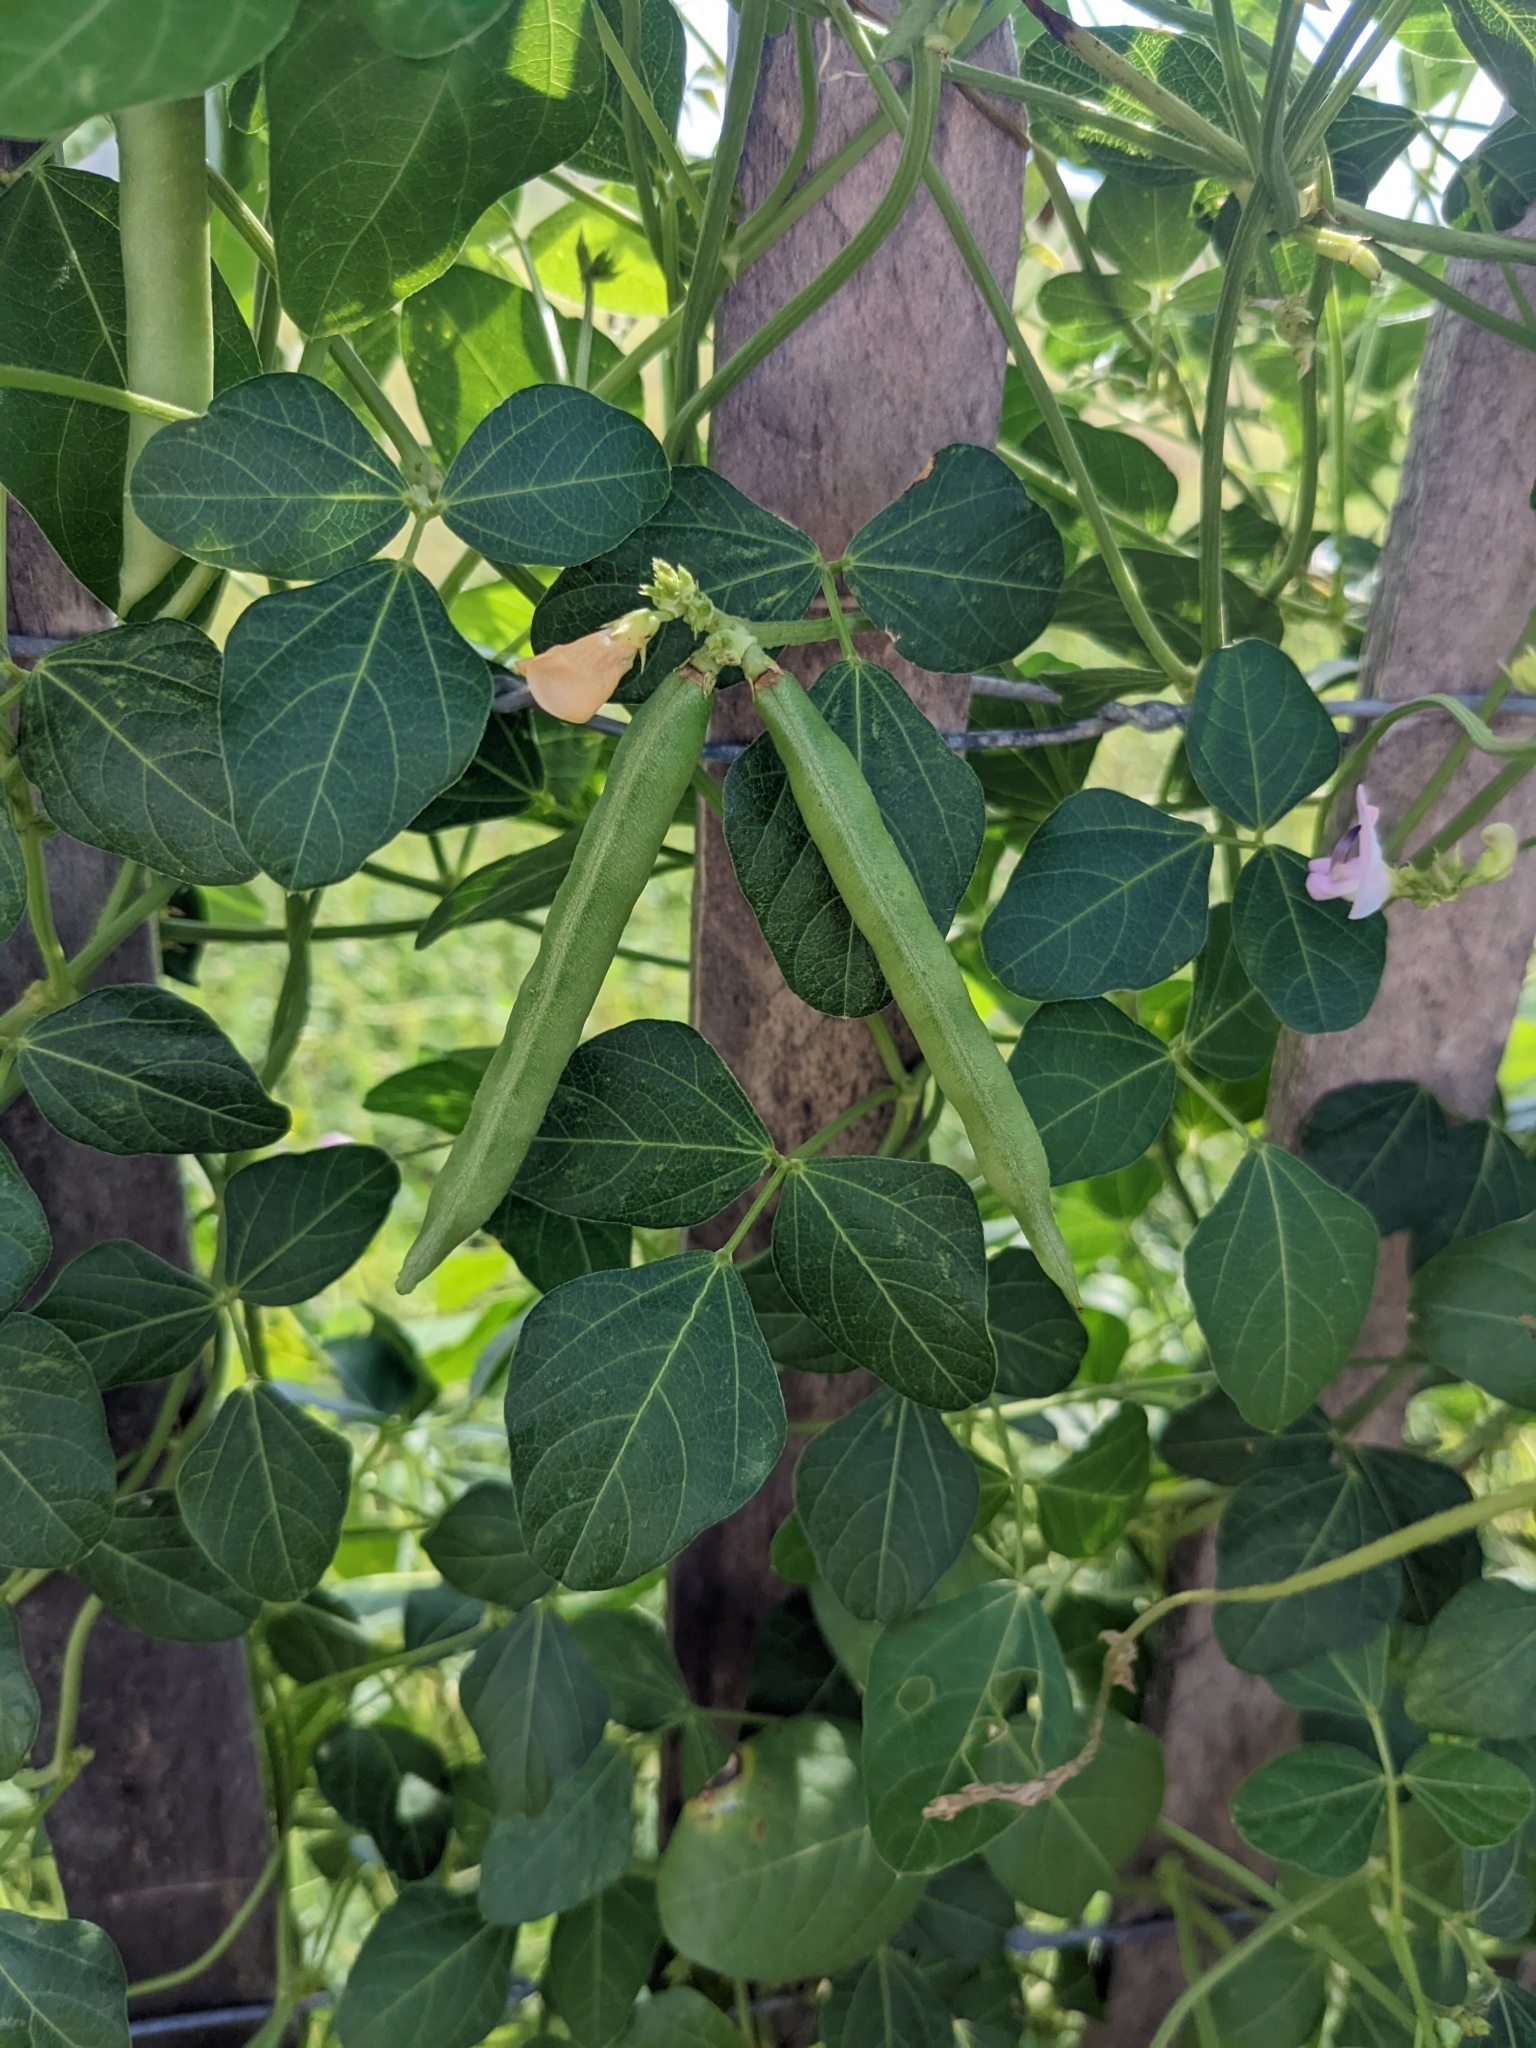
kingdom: Plantae
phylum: Tracheophyta
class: Magnoliopsida
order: Fabales
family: Fabaceae
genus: Strophostyles
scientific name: Strophostyles helvola
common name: Trailing wild bean
